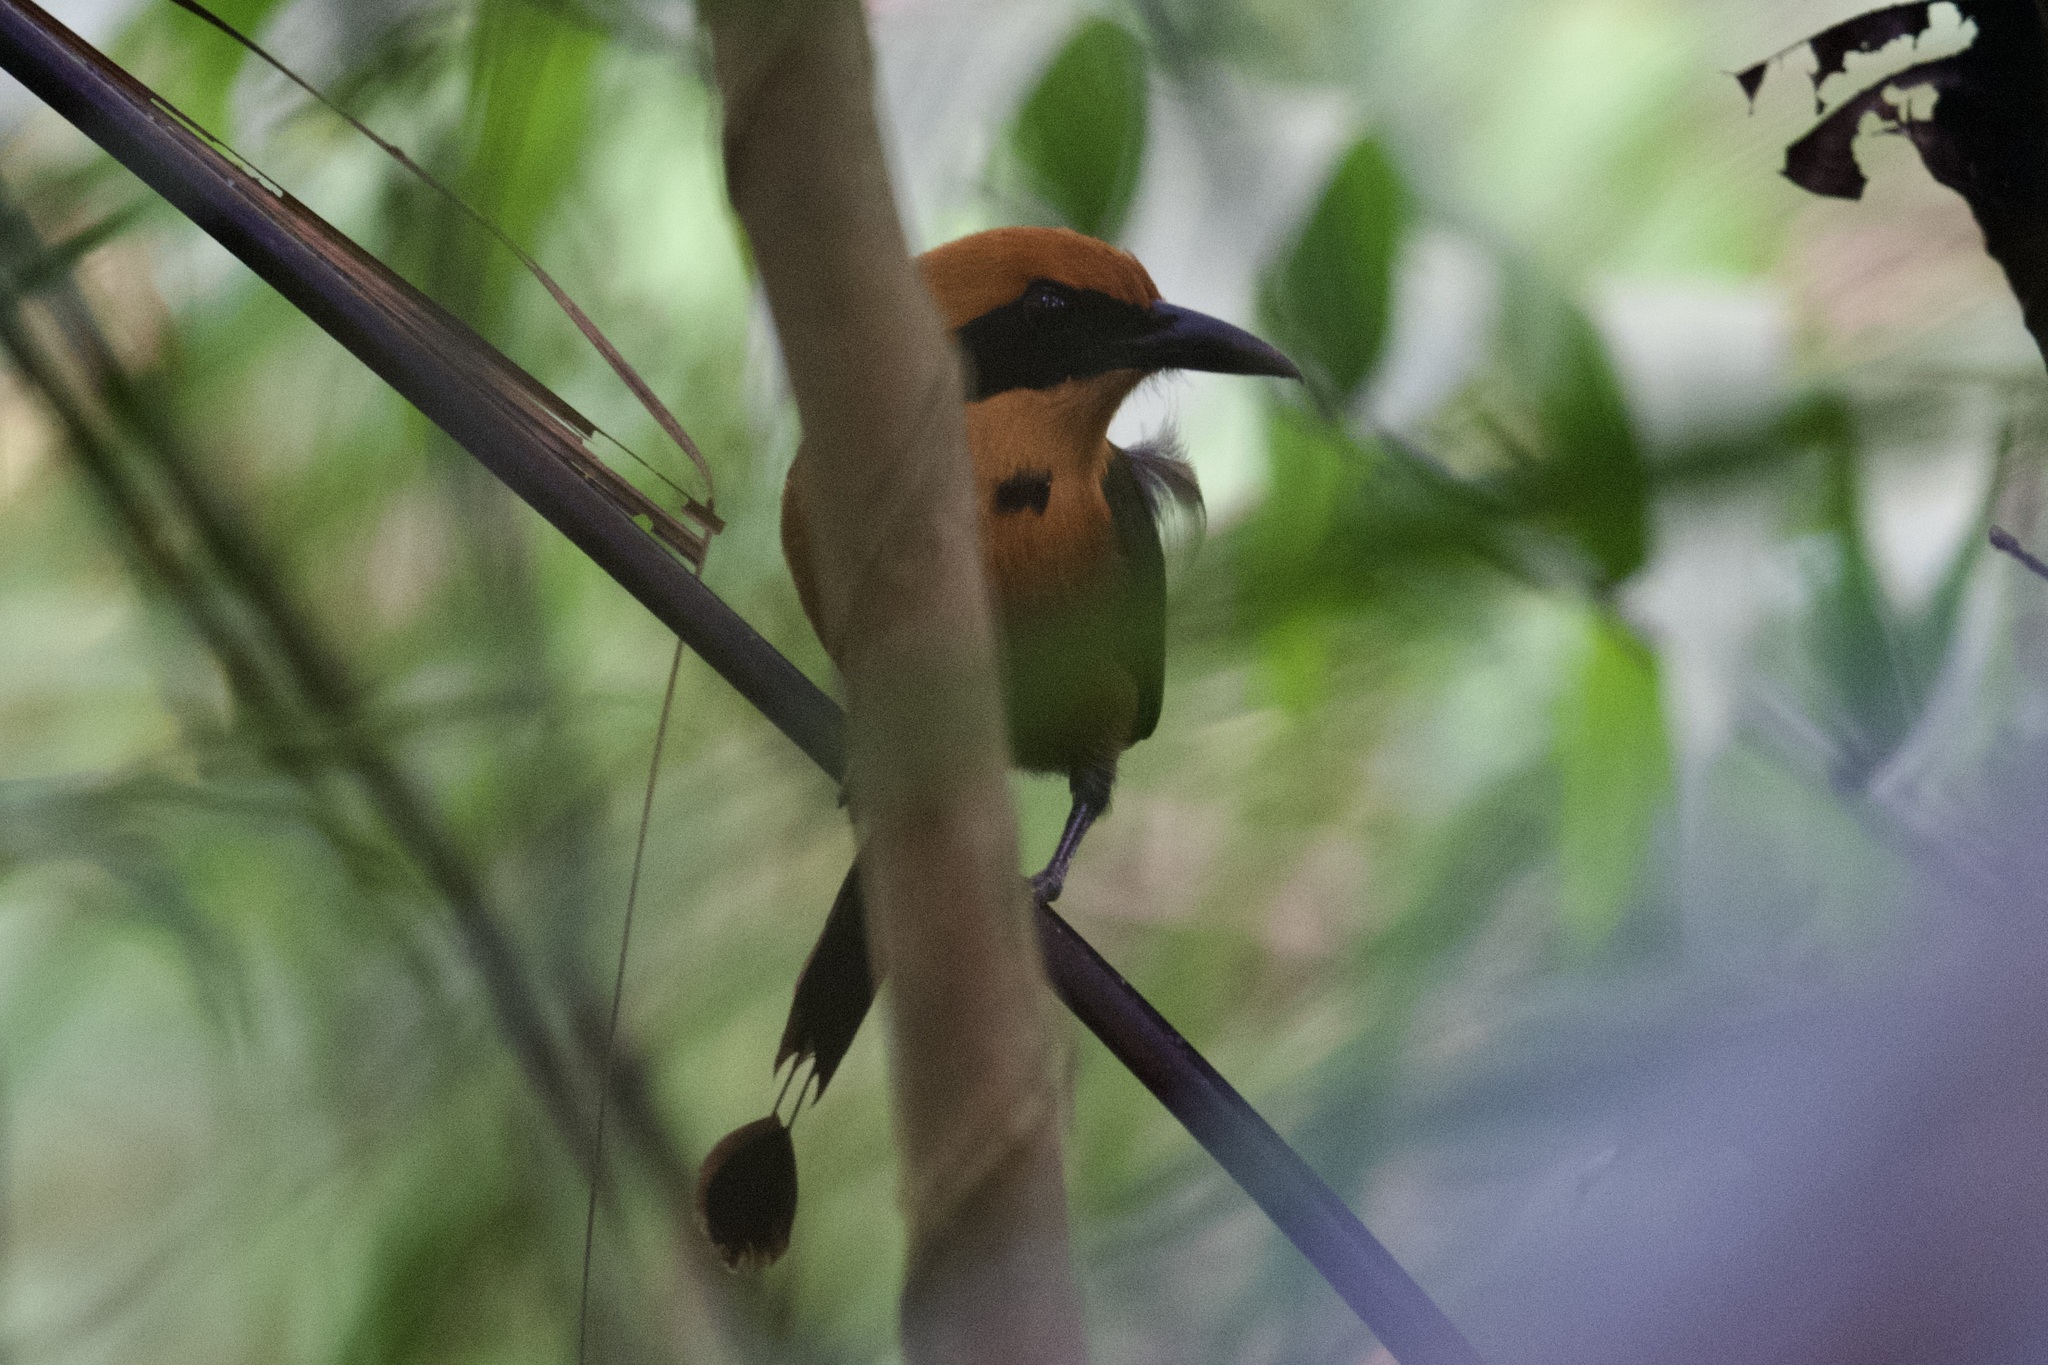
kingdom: Animalia
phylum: Chordata
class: Aves
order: Coraciiformes
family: Momotidae
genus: Baryphthengus
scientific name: Baryphthengus martii
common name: Rufous motmot
